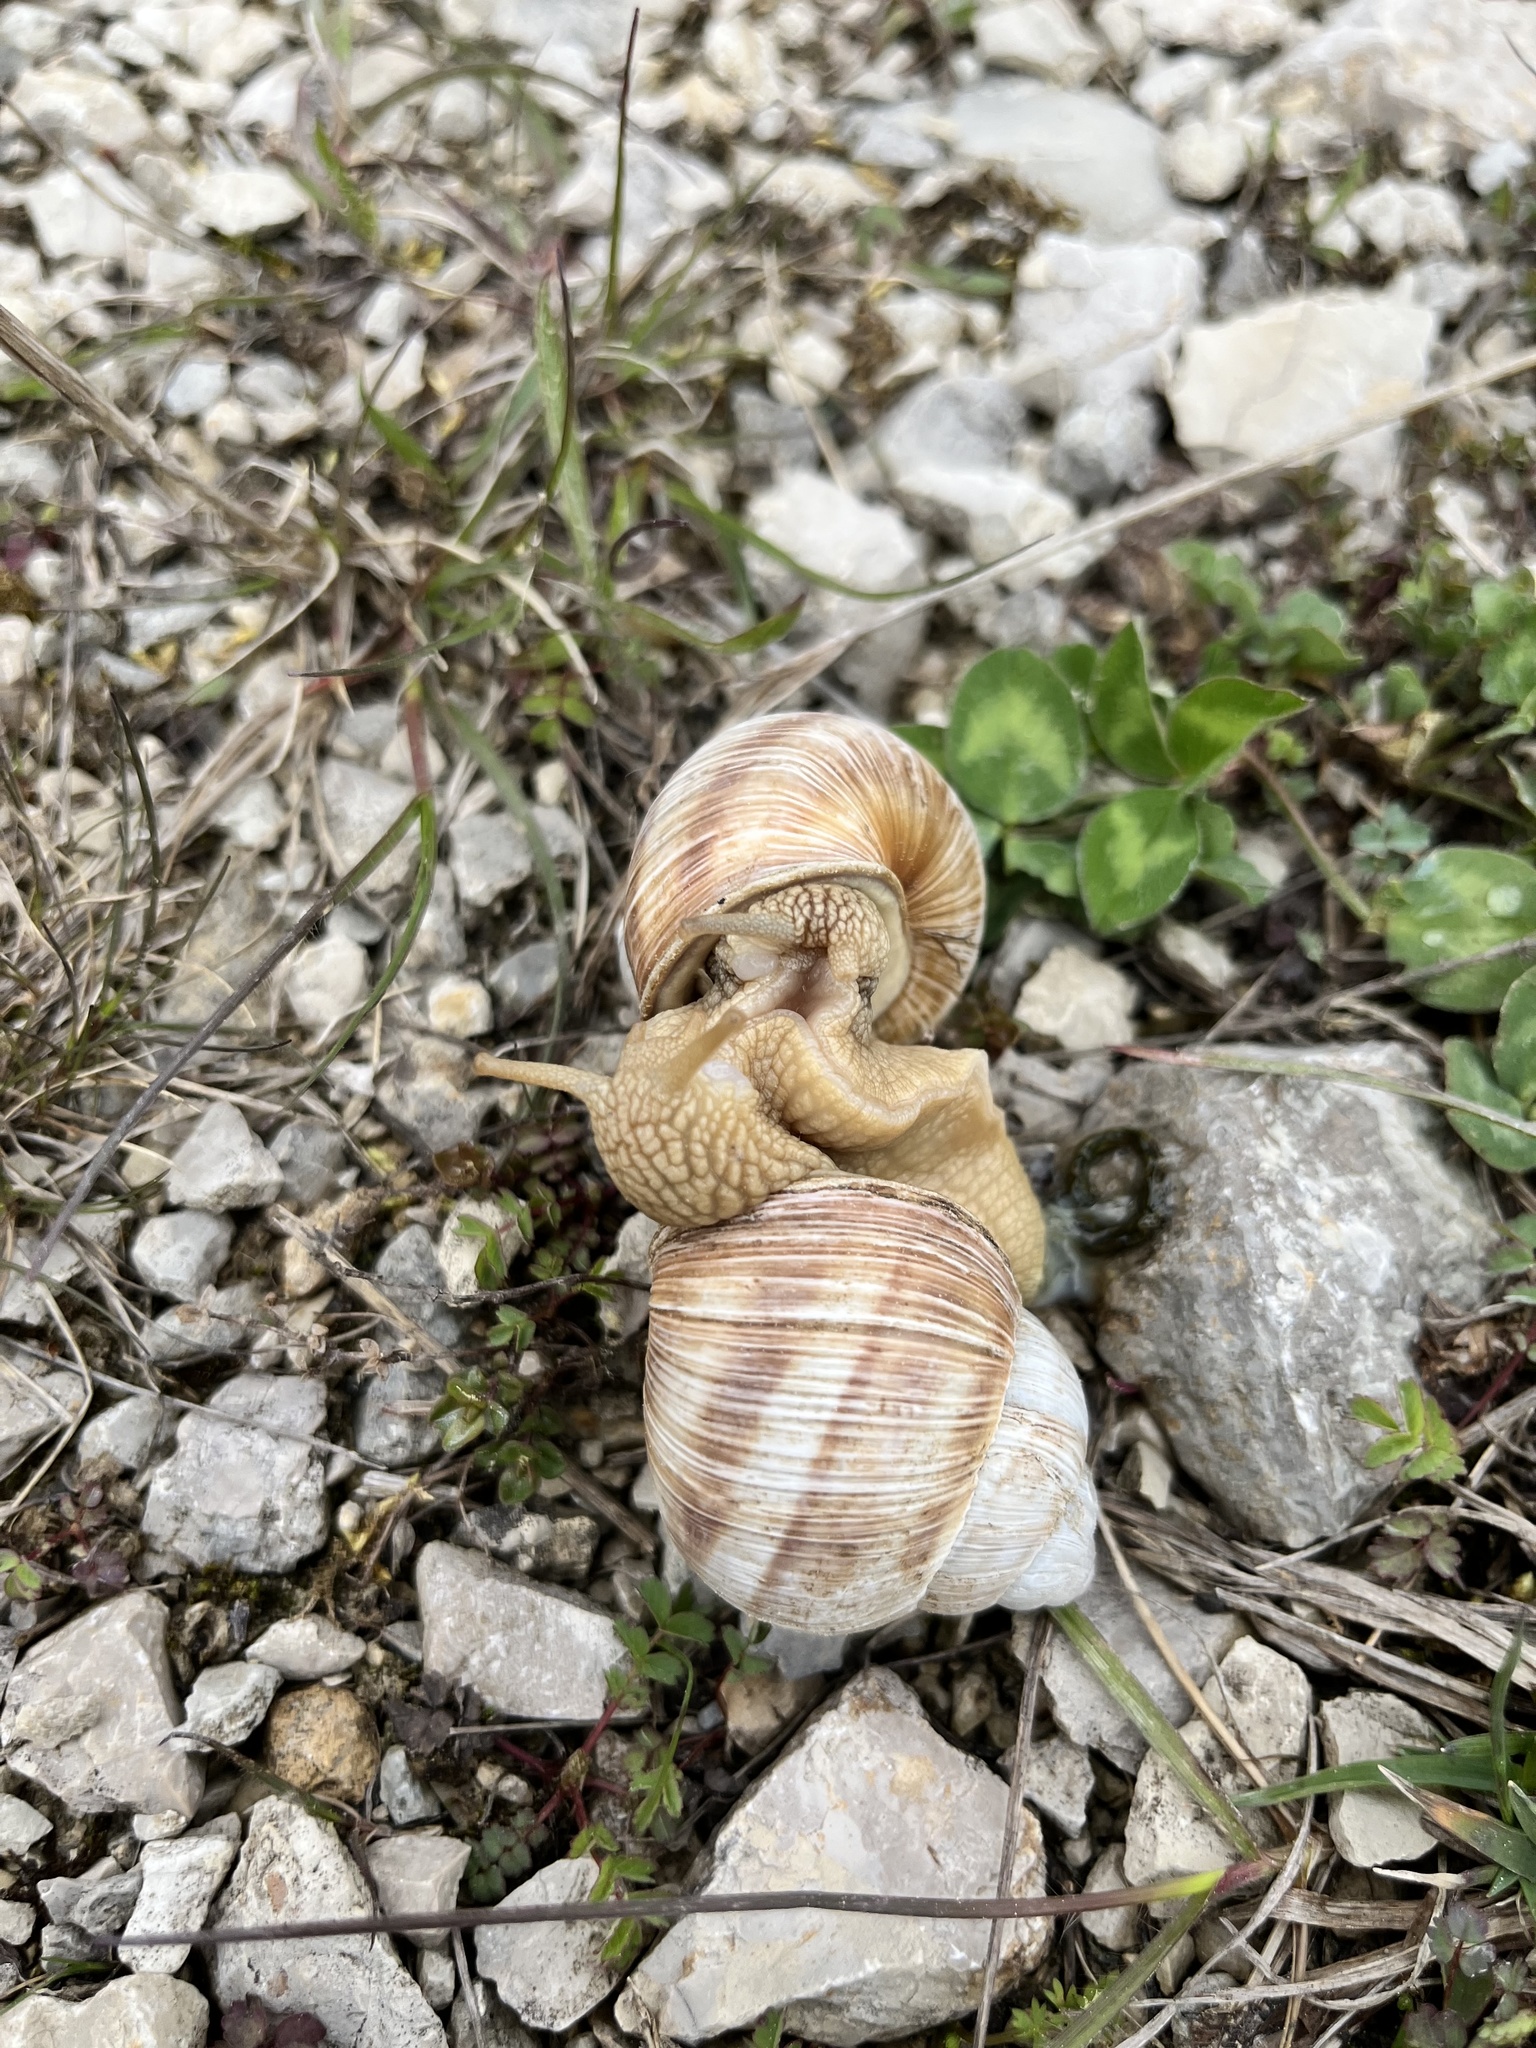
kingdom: Animalia
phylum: Mollusca
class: Gastropoda
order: Stylommatophora
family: Helicidae
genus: Helix
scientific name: Helix pomatia
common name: Roman snail
